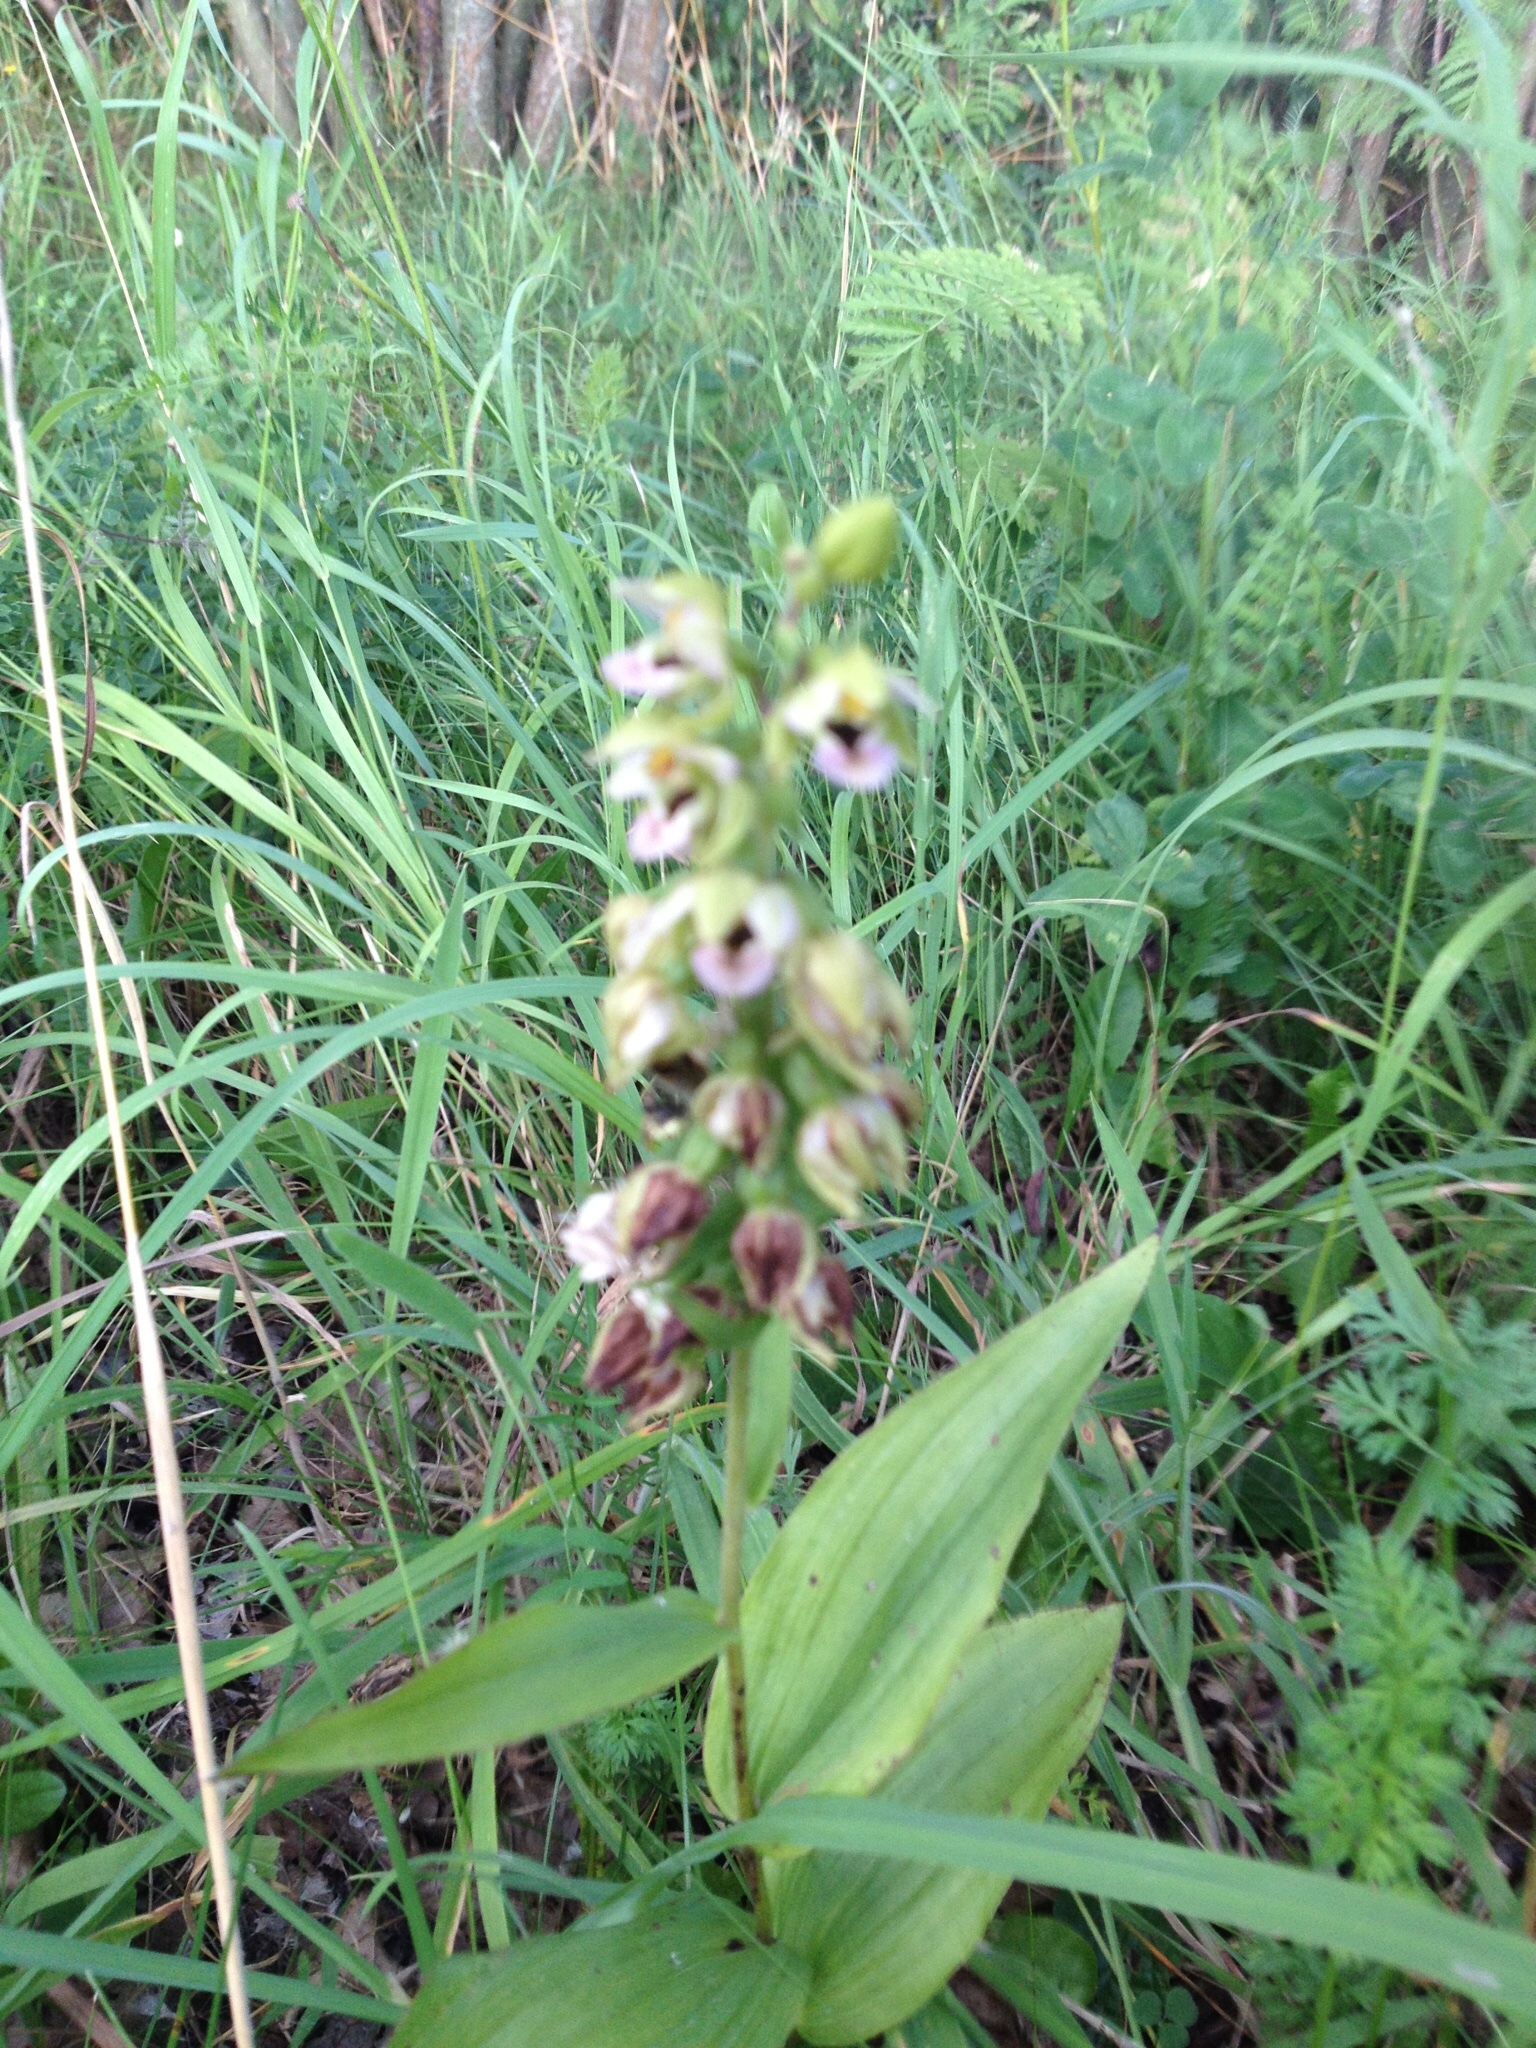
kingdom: Plantae
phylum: Tracheophyta
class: Liliopsida
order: Asparagales
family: Orchidaceae
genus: Epipactis
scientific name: Epipactis helleborine
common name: Broad-leaved helleborine
